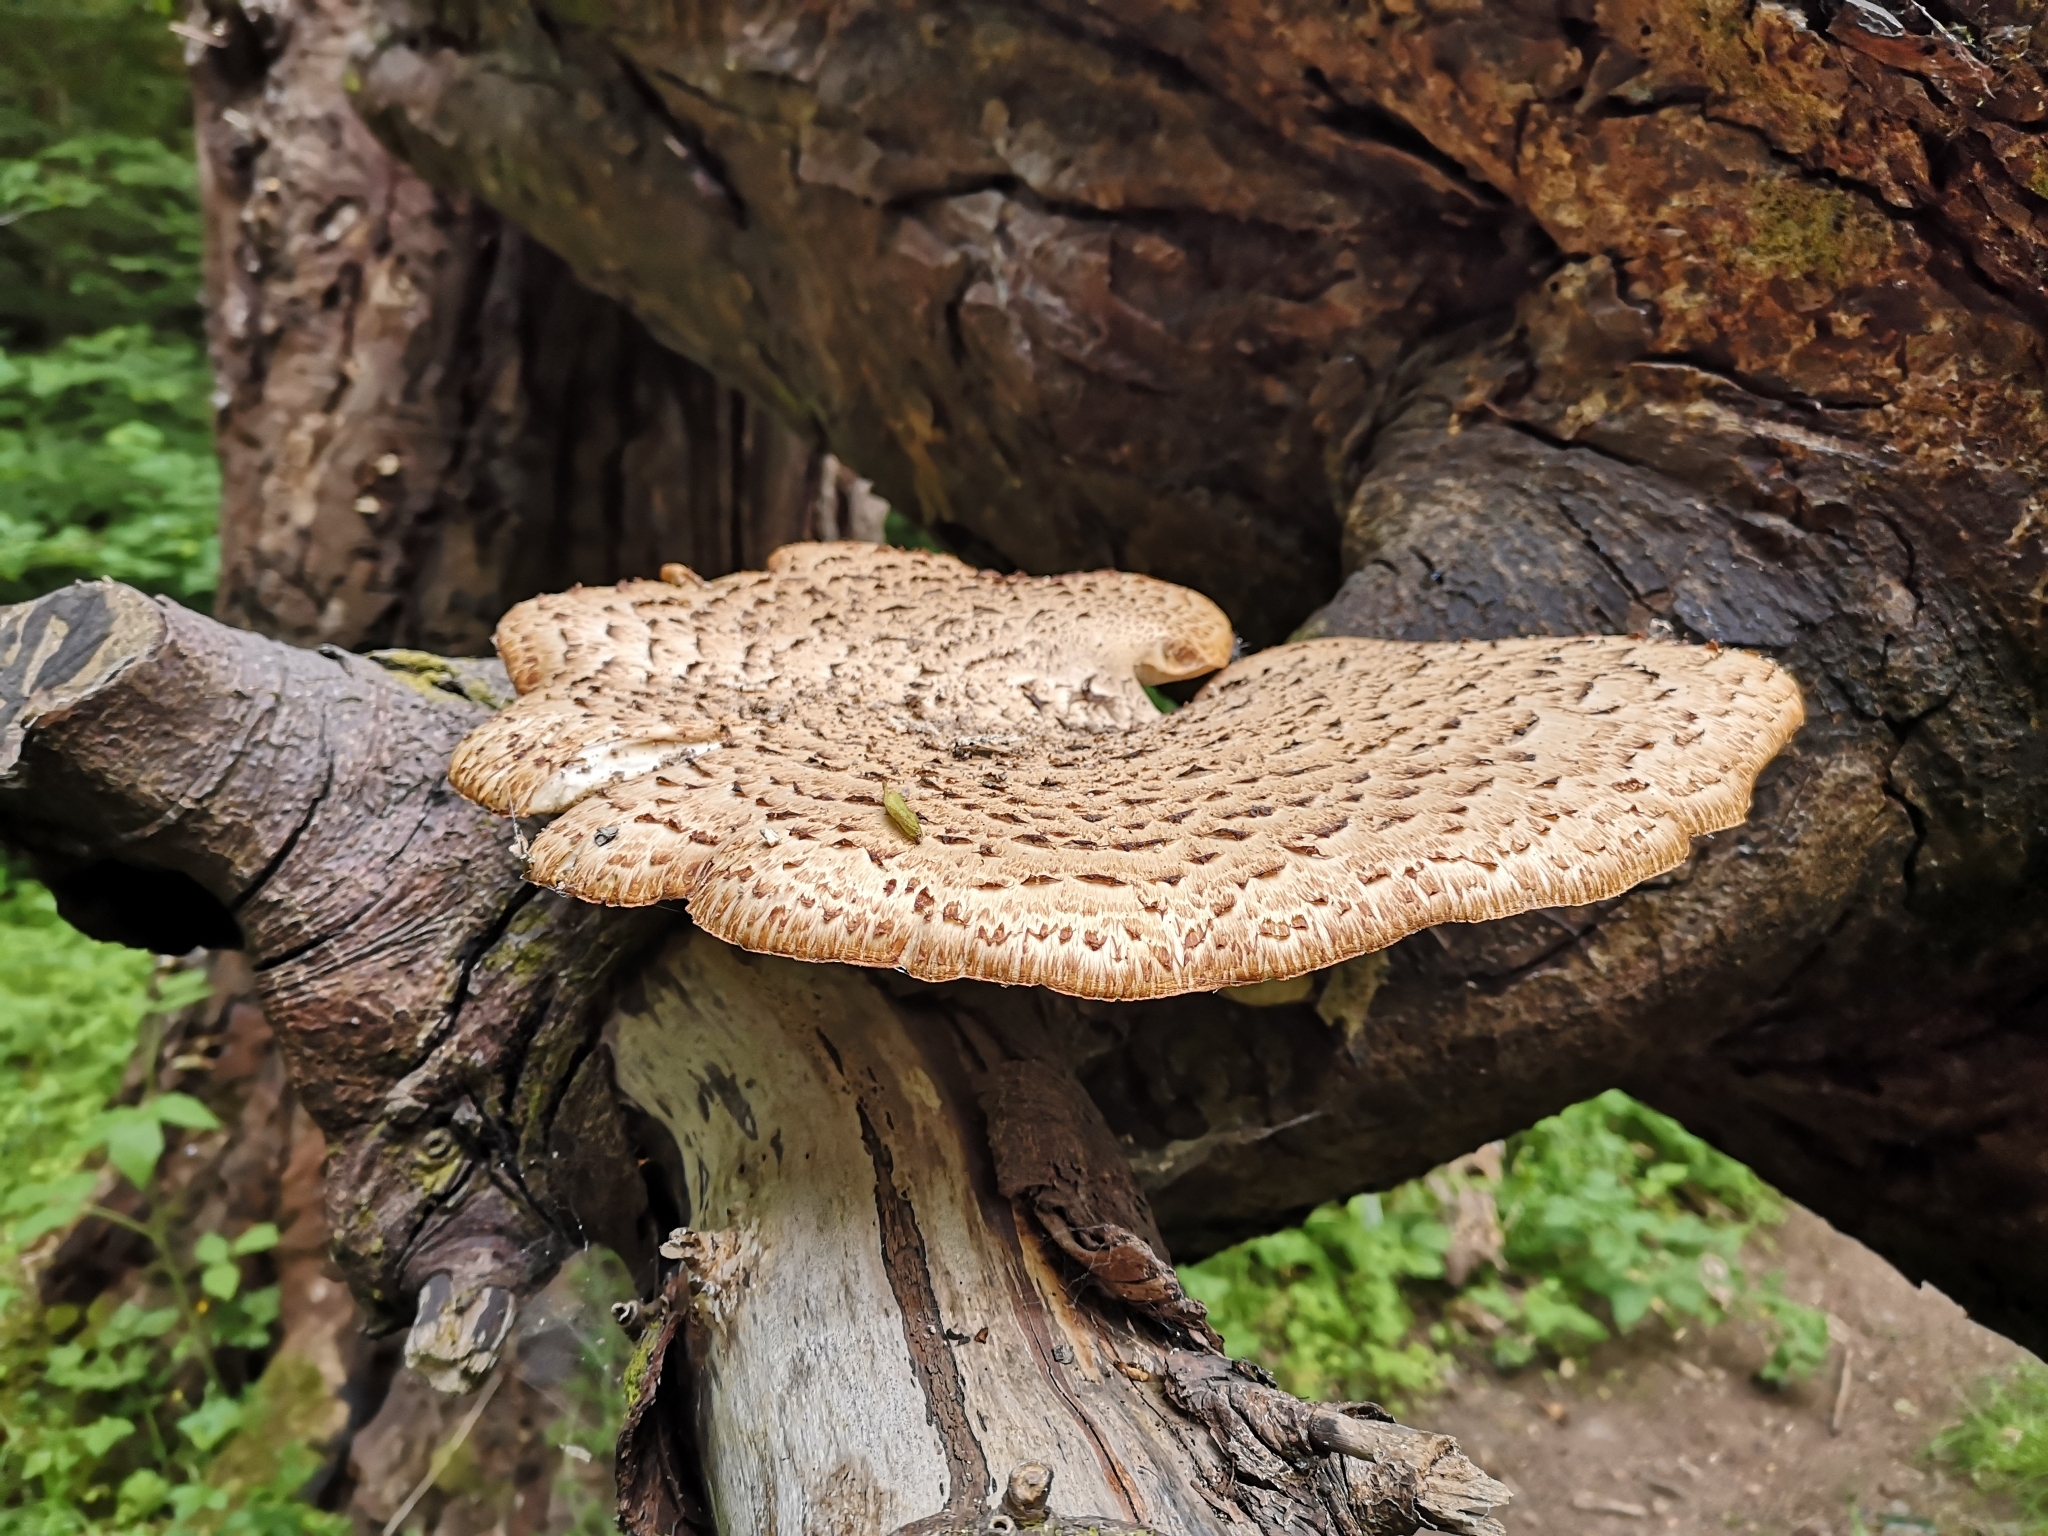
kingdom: Fungi
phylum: Basidiomycota
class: Agaricomycetes
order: Polyporales
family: Polyporaceae
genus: Cerioporus
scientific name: Cerioporus squamosus
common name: Dryad's saddle
